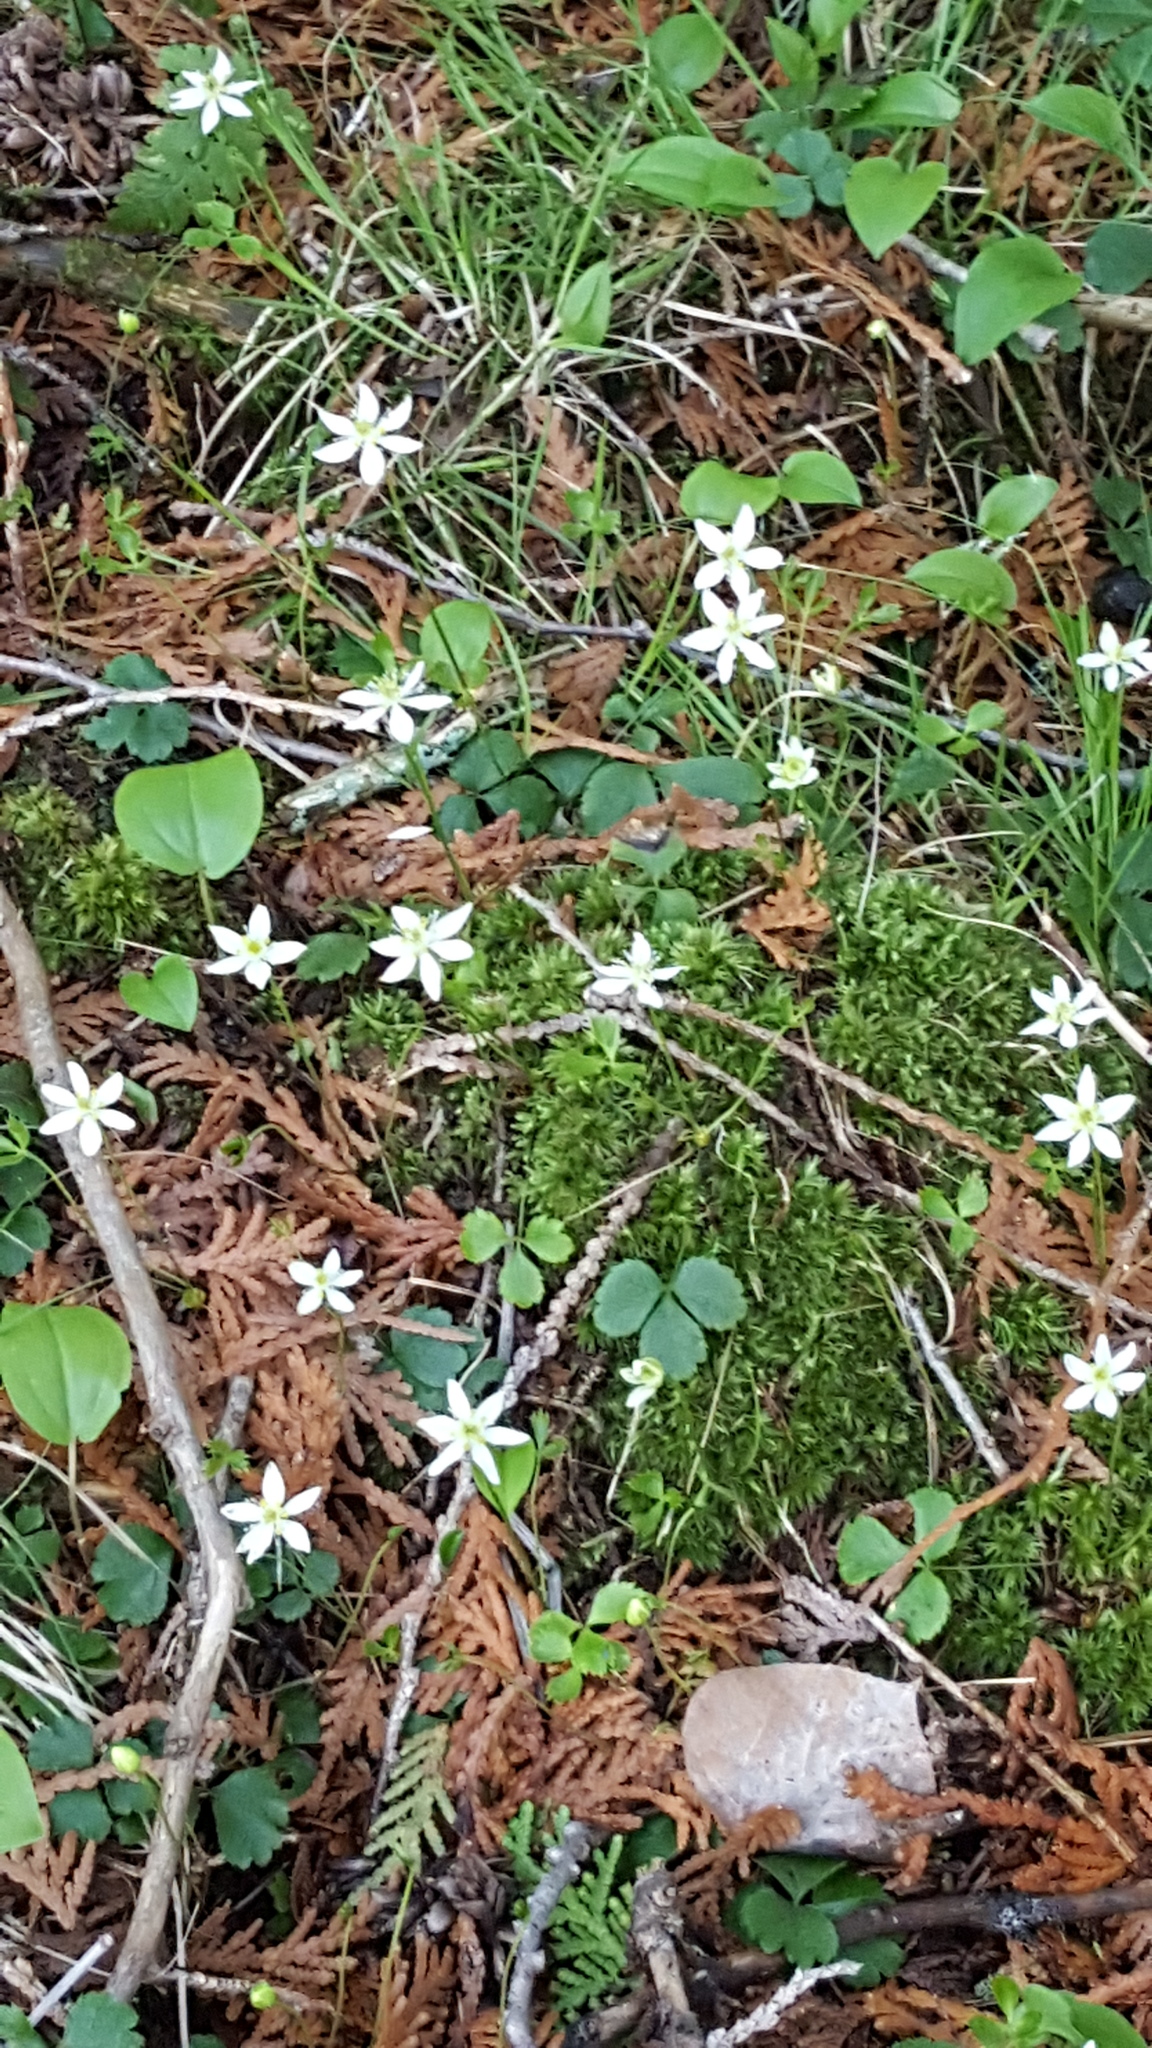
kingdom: Plantae
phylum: Tracheophyta
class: Magnoliopsida
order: Ranunculales
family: Ranunculaceae
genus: Coptis
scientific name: Coptis trifolia
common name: Canker-root
